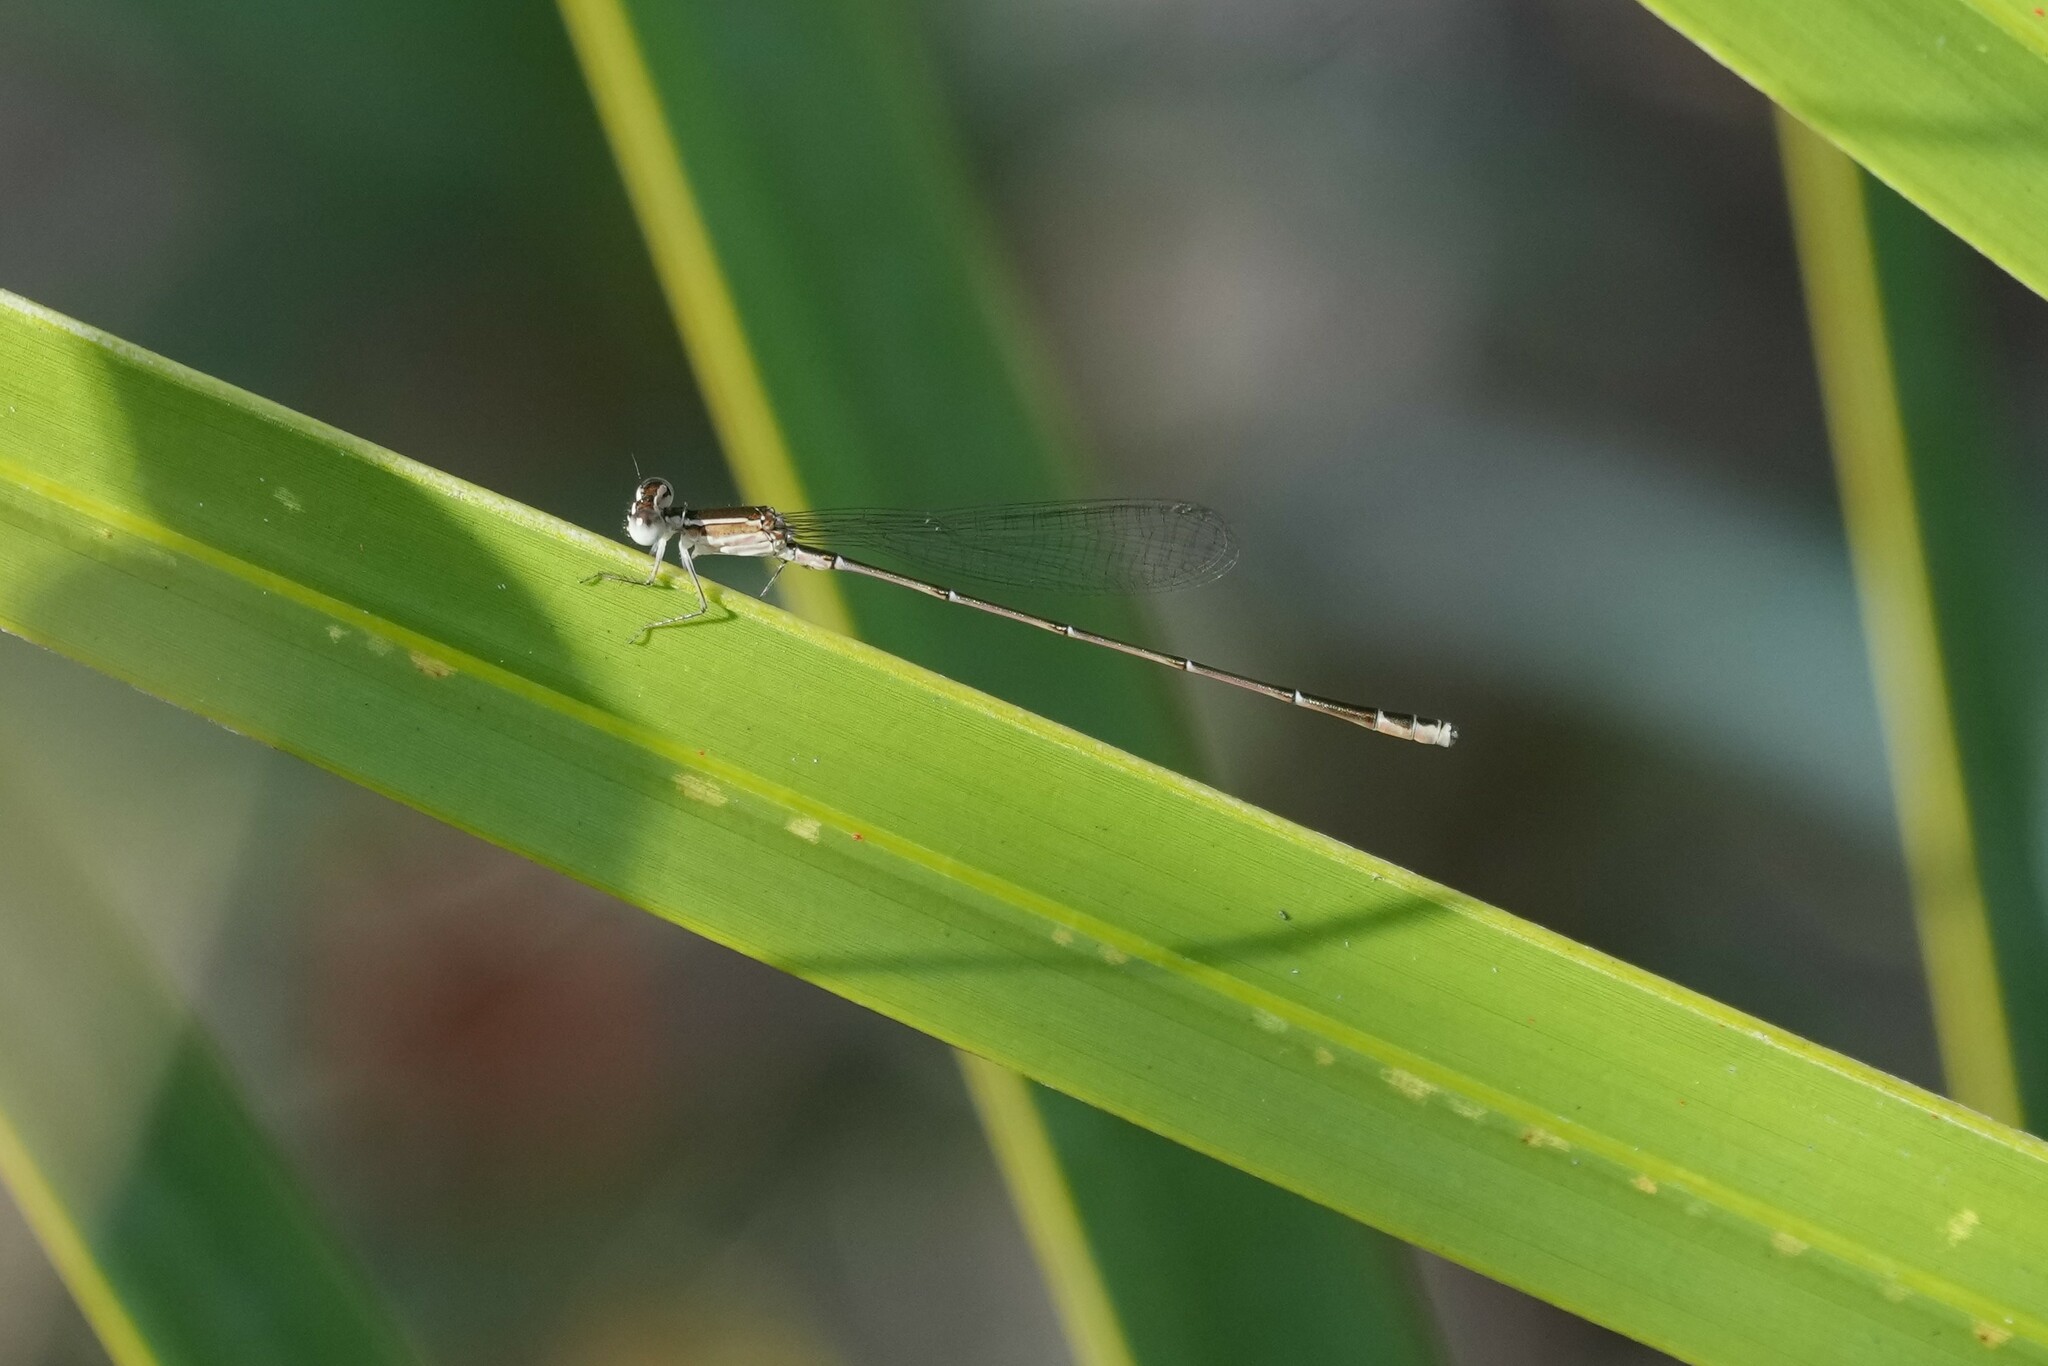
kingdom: Animalia
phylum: Arthropoda
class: Insecta
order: Odonata
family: Coenagrionidae
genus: Nehalennia
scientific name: Nehalennia pallidula
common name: Everglades sprite
